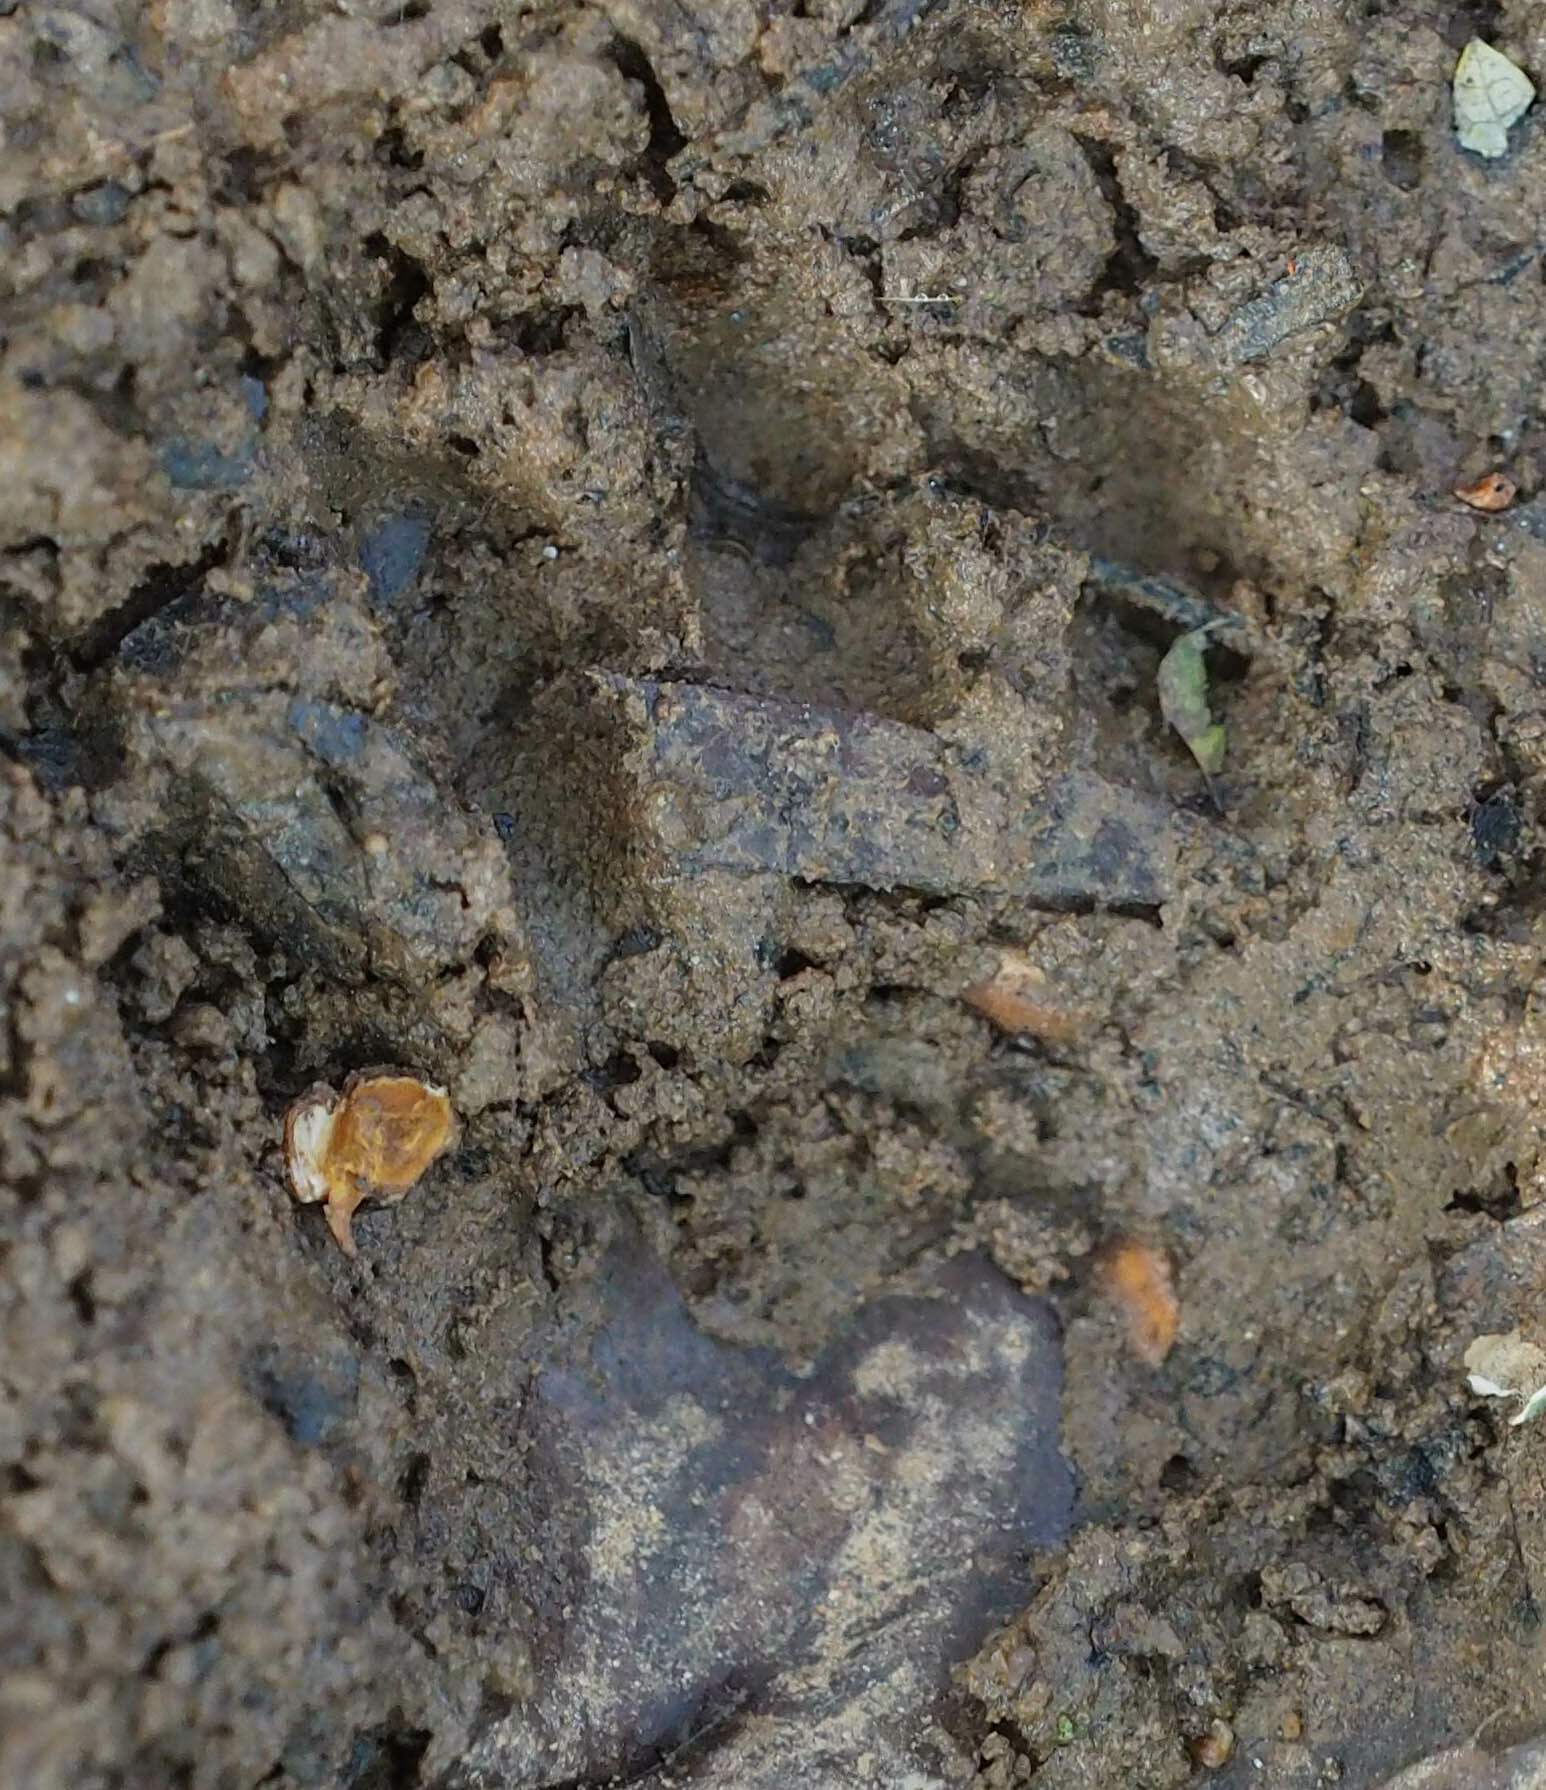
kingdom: Animalia
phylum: Chordata
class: Mammalia
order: Carnivora
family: Procyonidae
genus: Procyon
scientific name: Procyon lotor
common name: Raccoon
